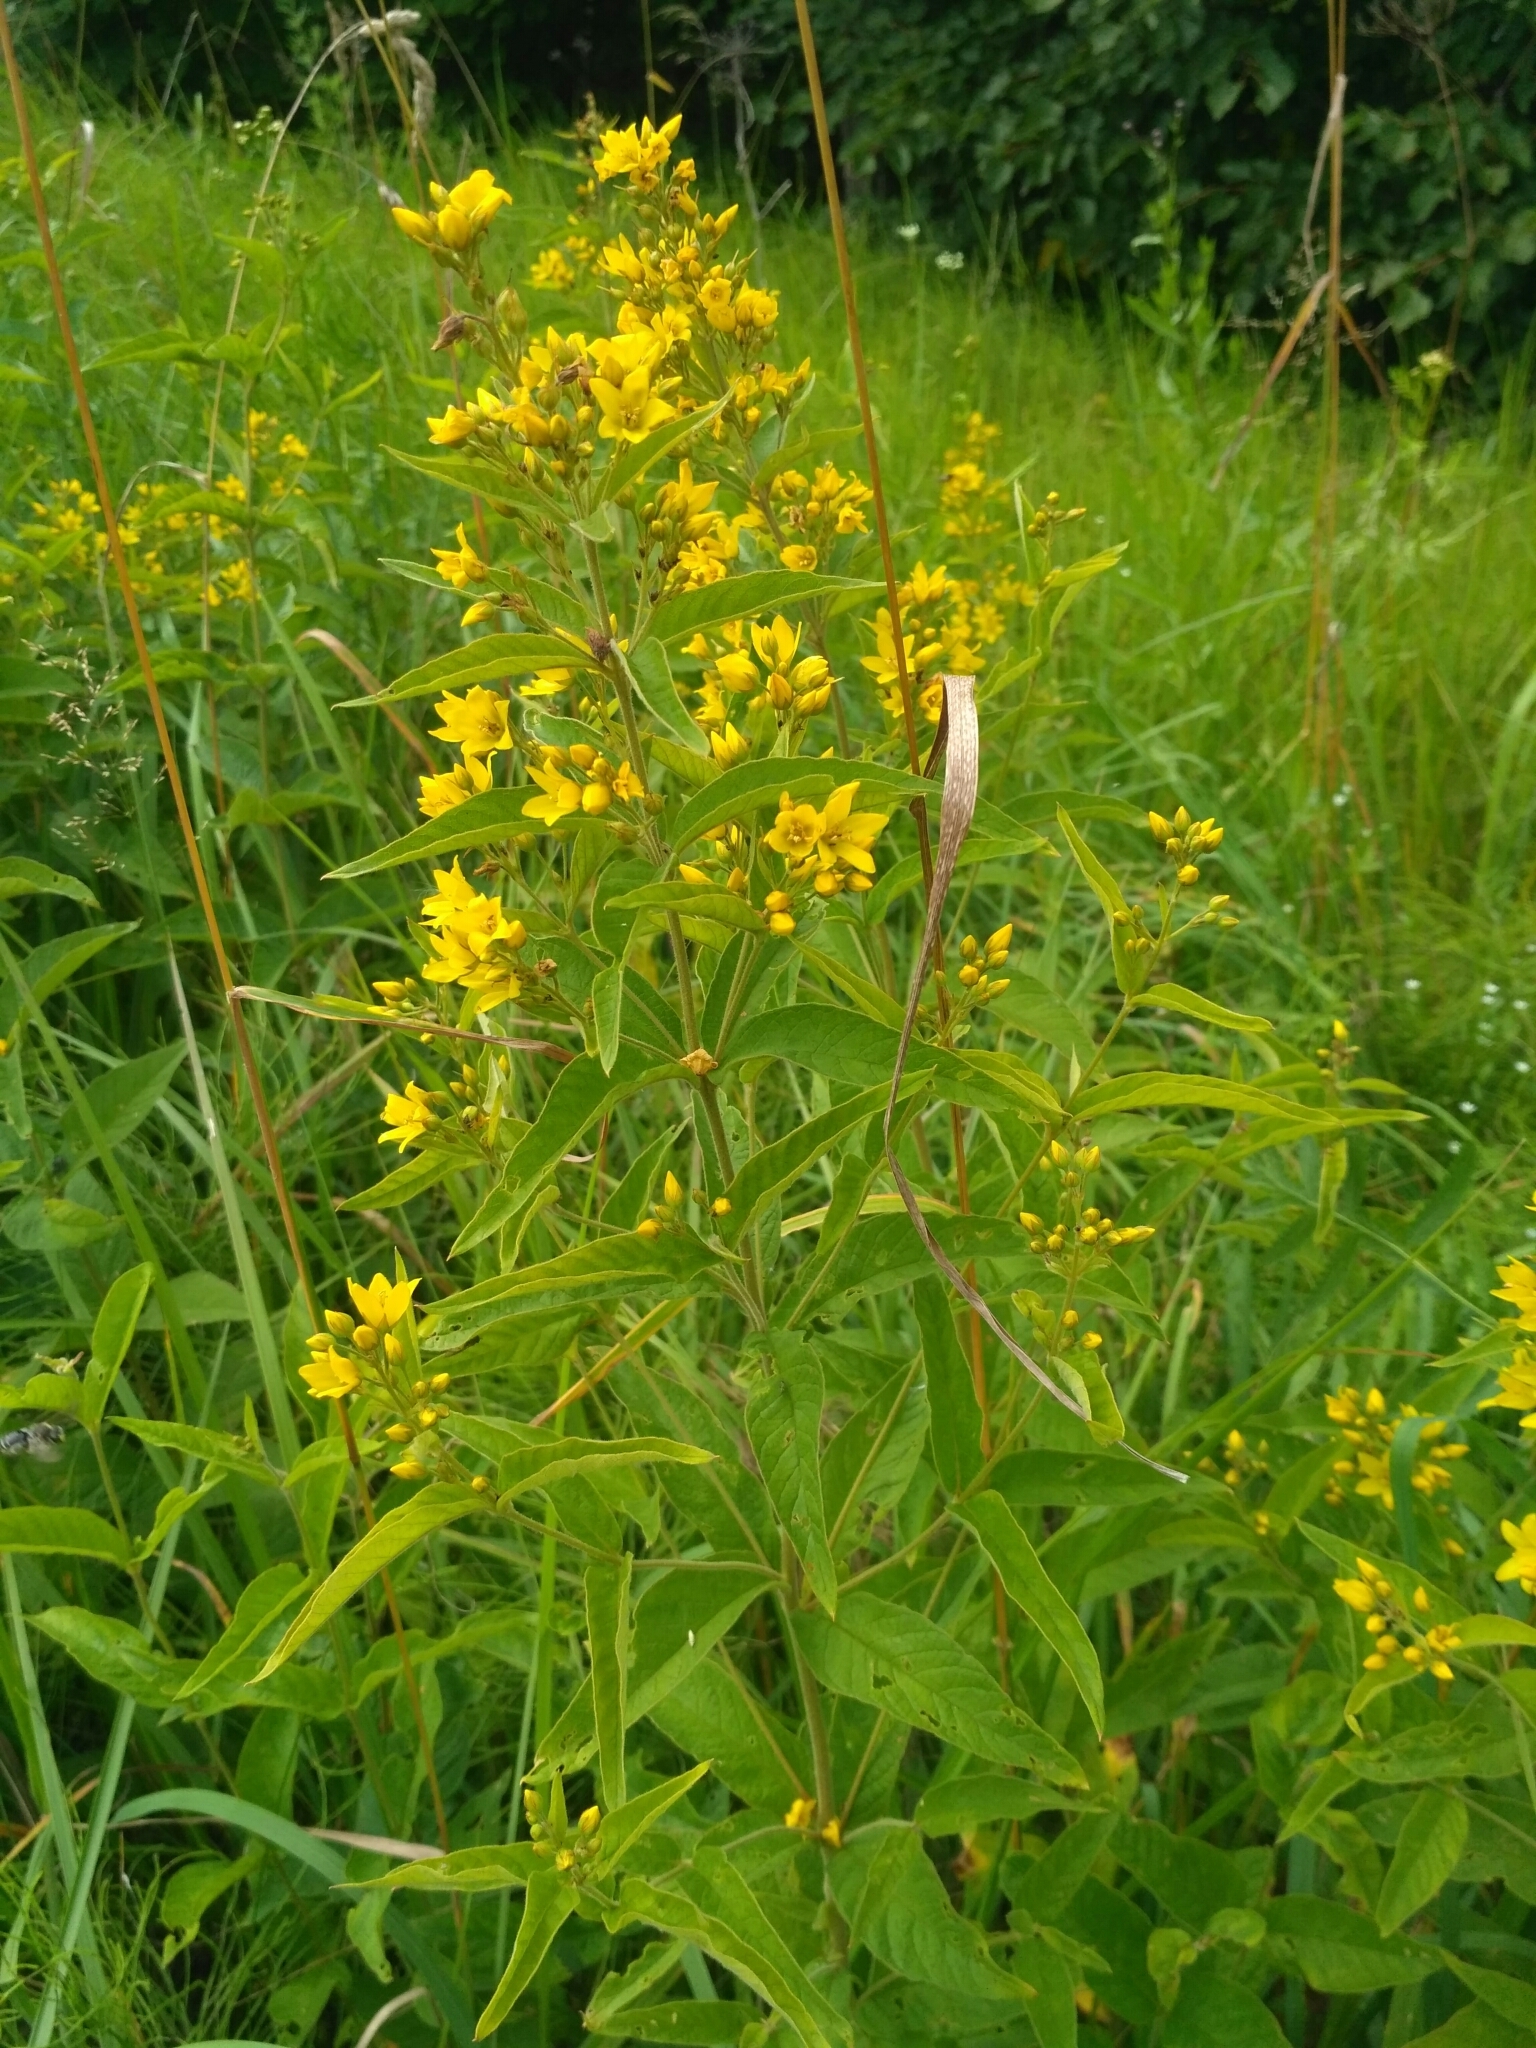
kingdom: Plantae
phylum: Tracheophyta
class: Magnoliopsida
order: Ericales
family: Primulaceae
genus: Lysimachia
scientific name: Lysimachia vulgaris
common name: Yellow loosestrife
